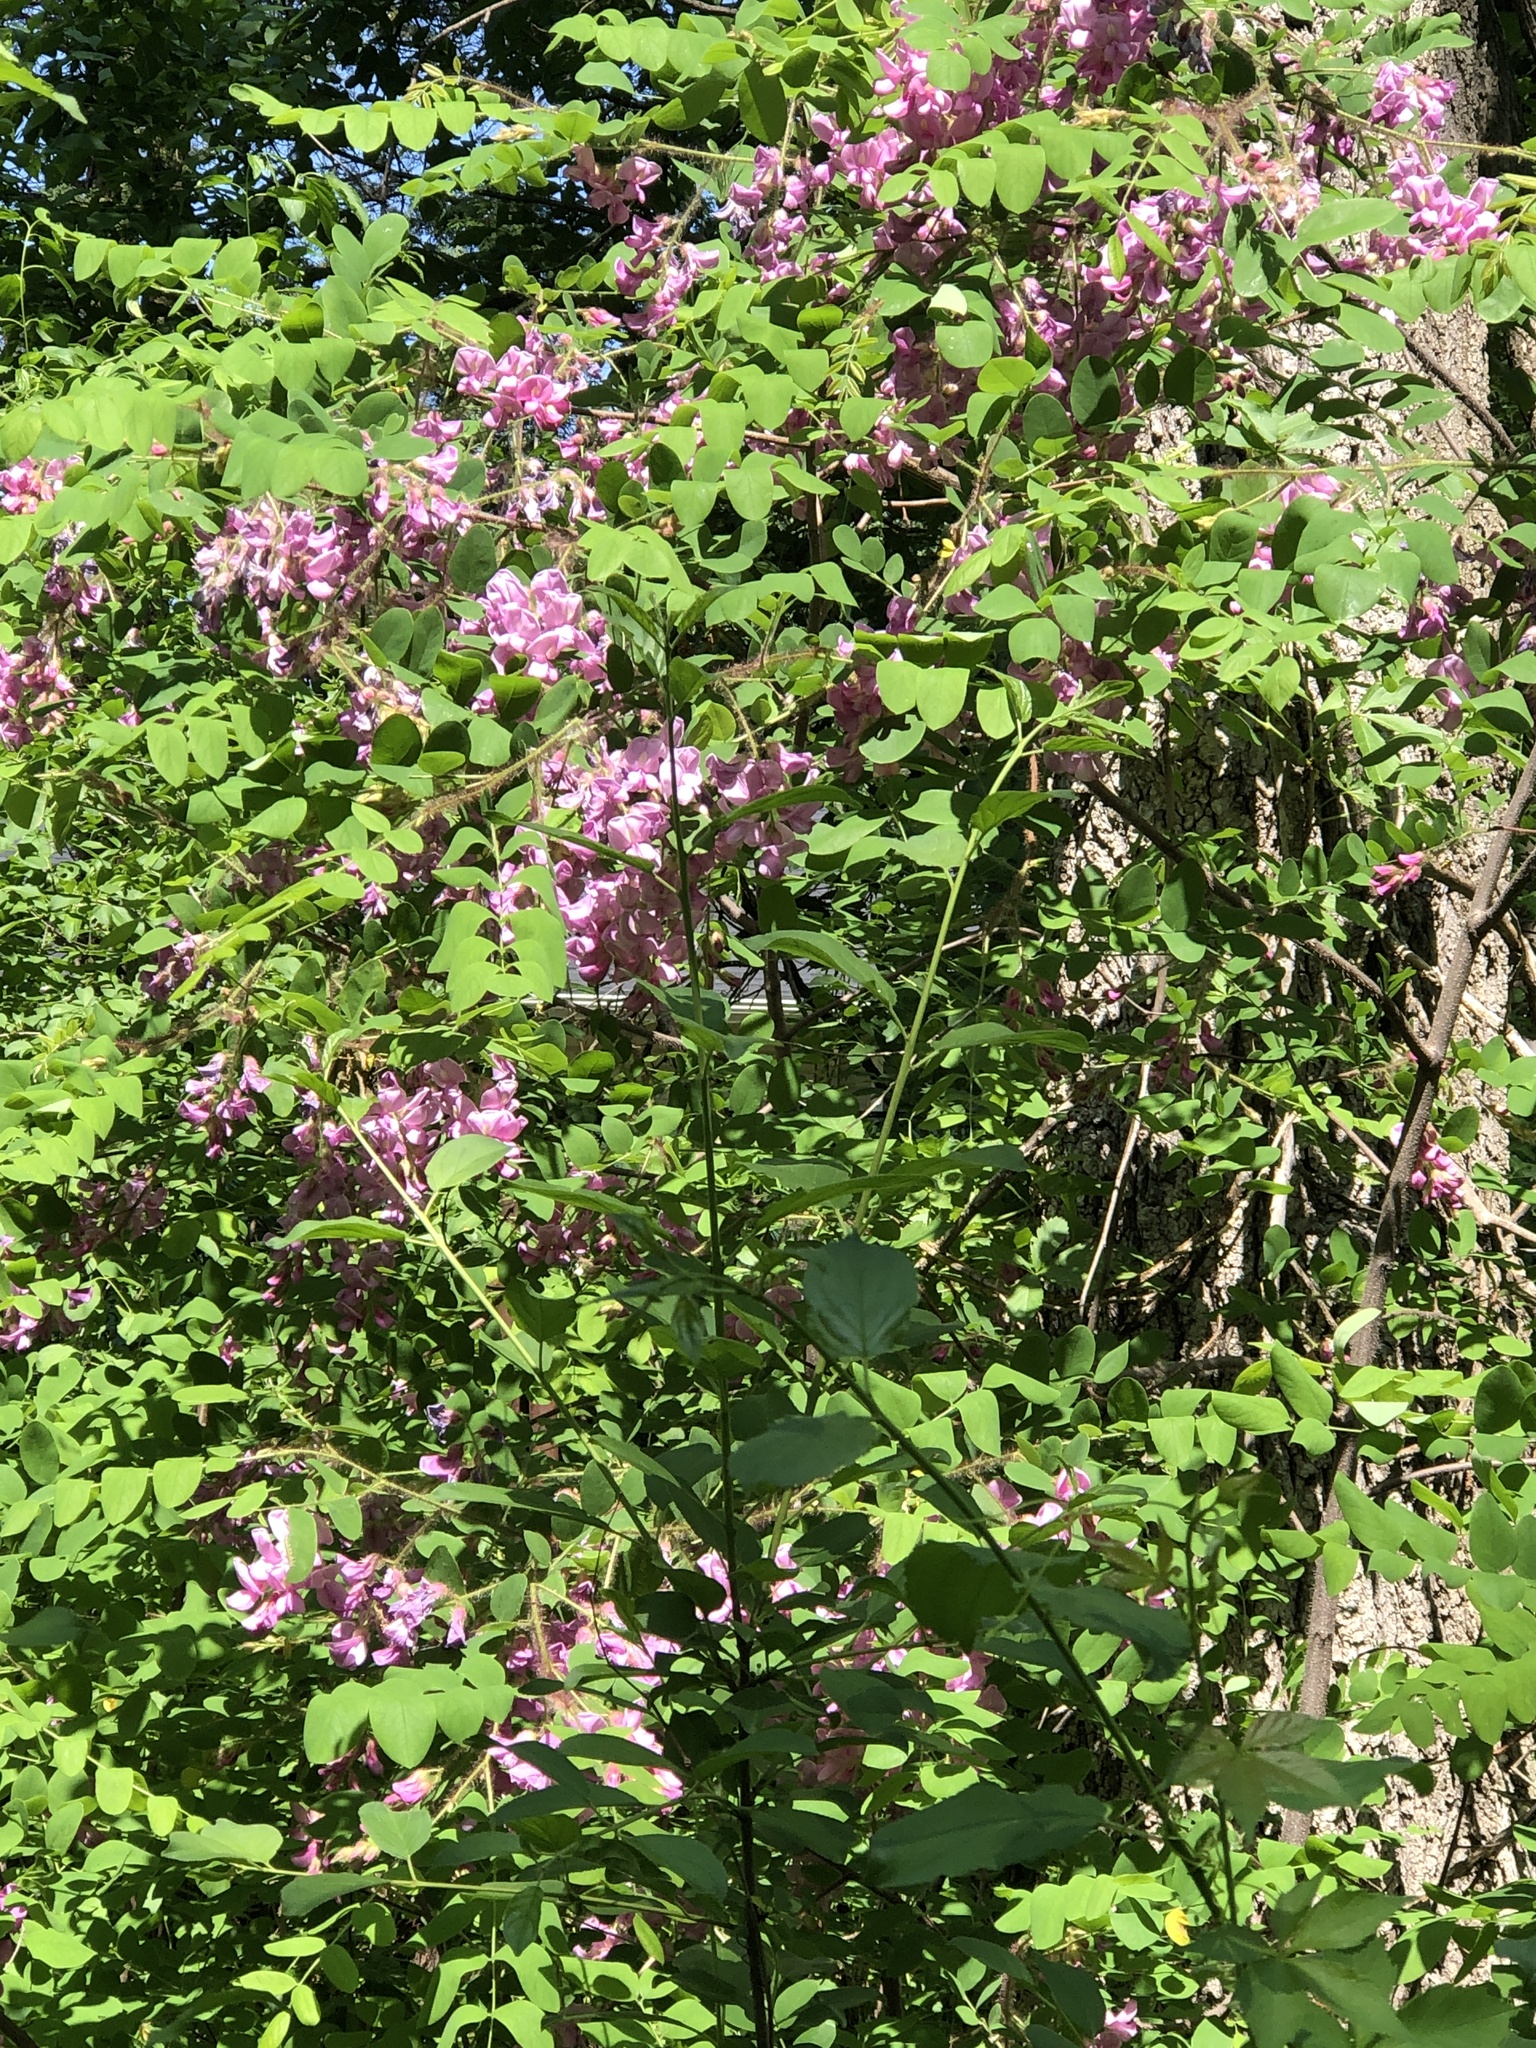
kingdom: Plantae
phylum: Tracheophyta
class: Magnoliopsida
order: Fabales
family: Fabaceae
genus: Robinia
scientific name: Robinia hispida
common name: Bristly locust
